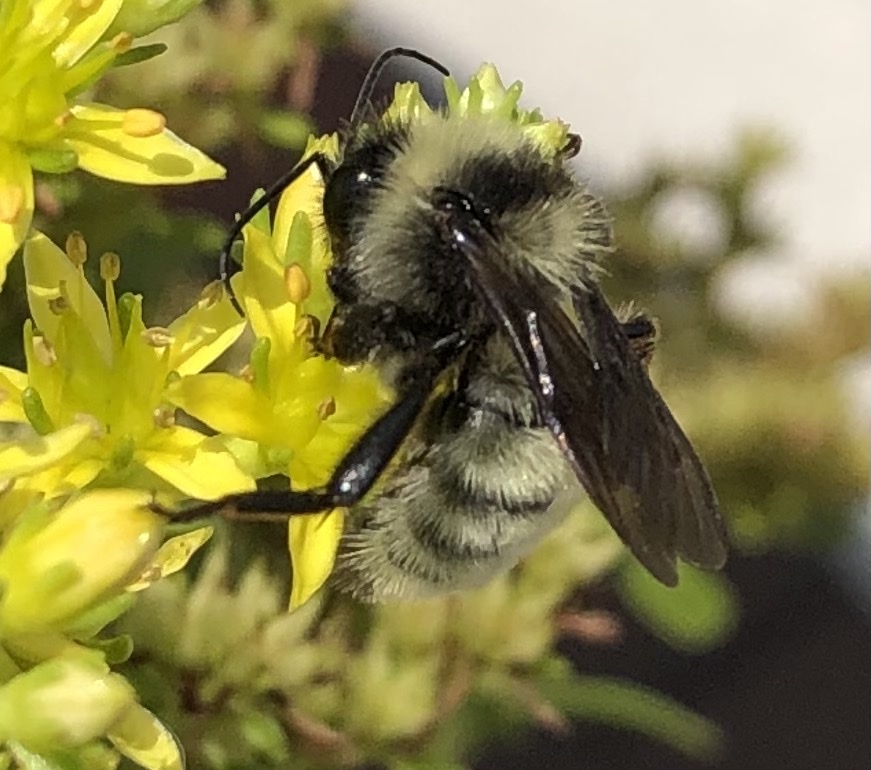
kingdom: Animalia
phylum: Arthropoda
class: Insecta
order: Hymenoptera
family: Apidae
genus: Bombus
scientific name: Bombus pensylvanicus
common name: Bumble bee
